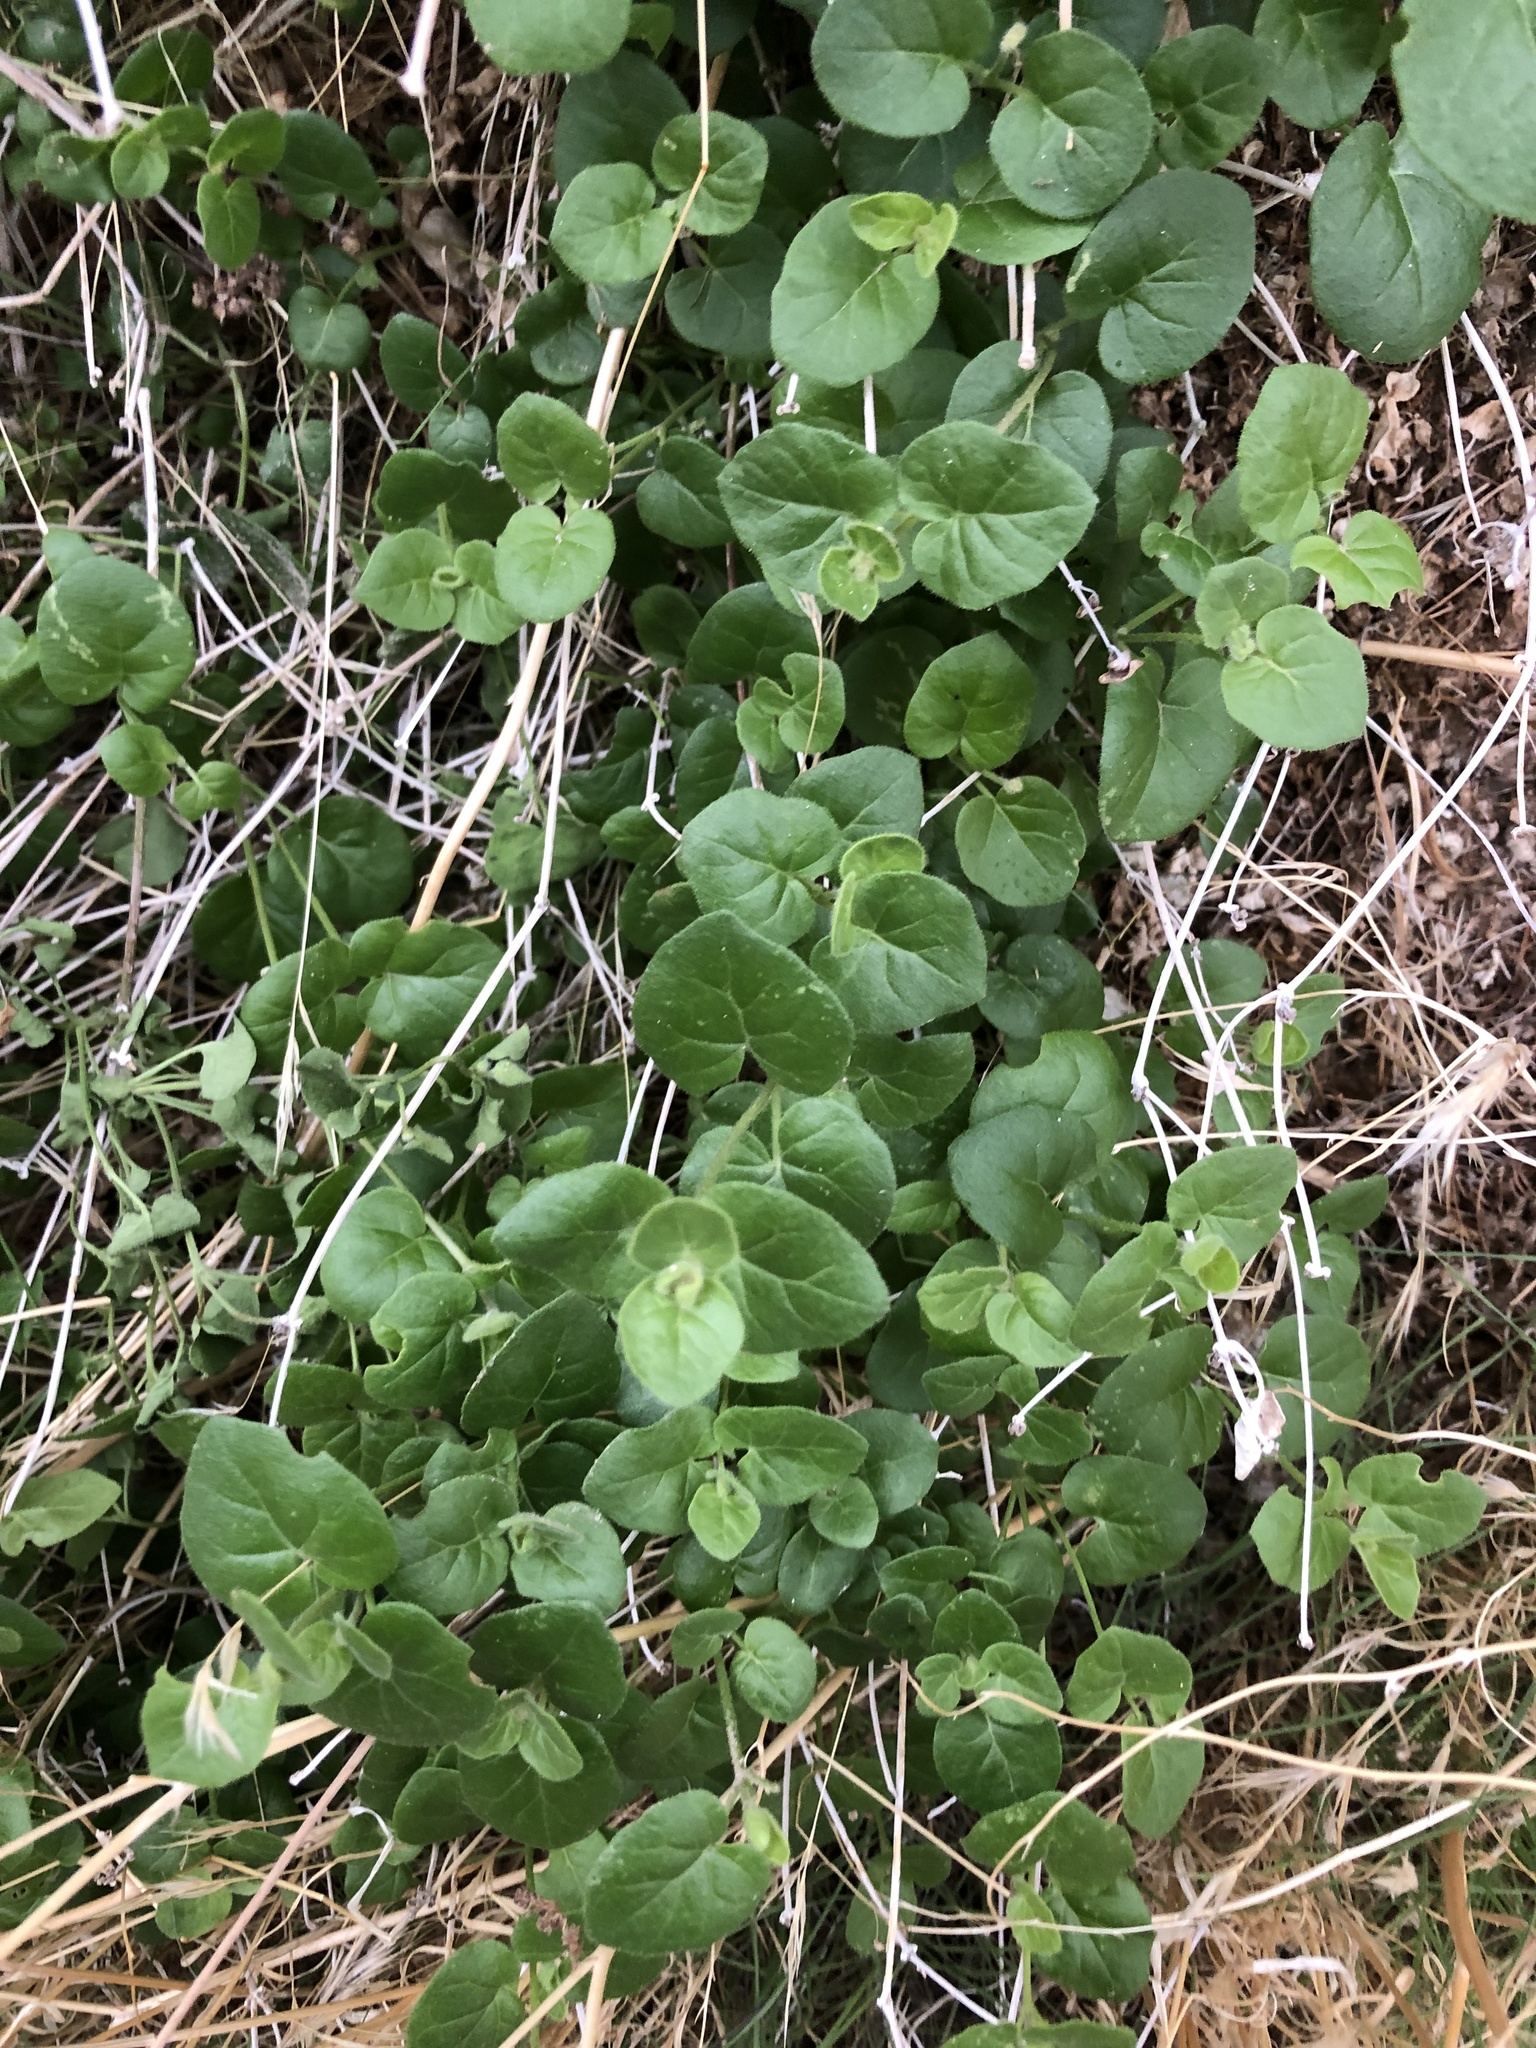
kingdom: Plantae
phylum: Tracheophyta
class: Magnoliopsida
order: Caryophyllales
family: Nyctaginaceae
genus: Mirabilis
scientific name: Mirabilis laevis
